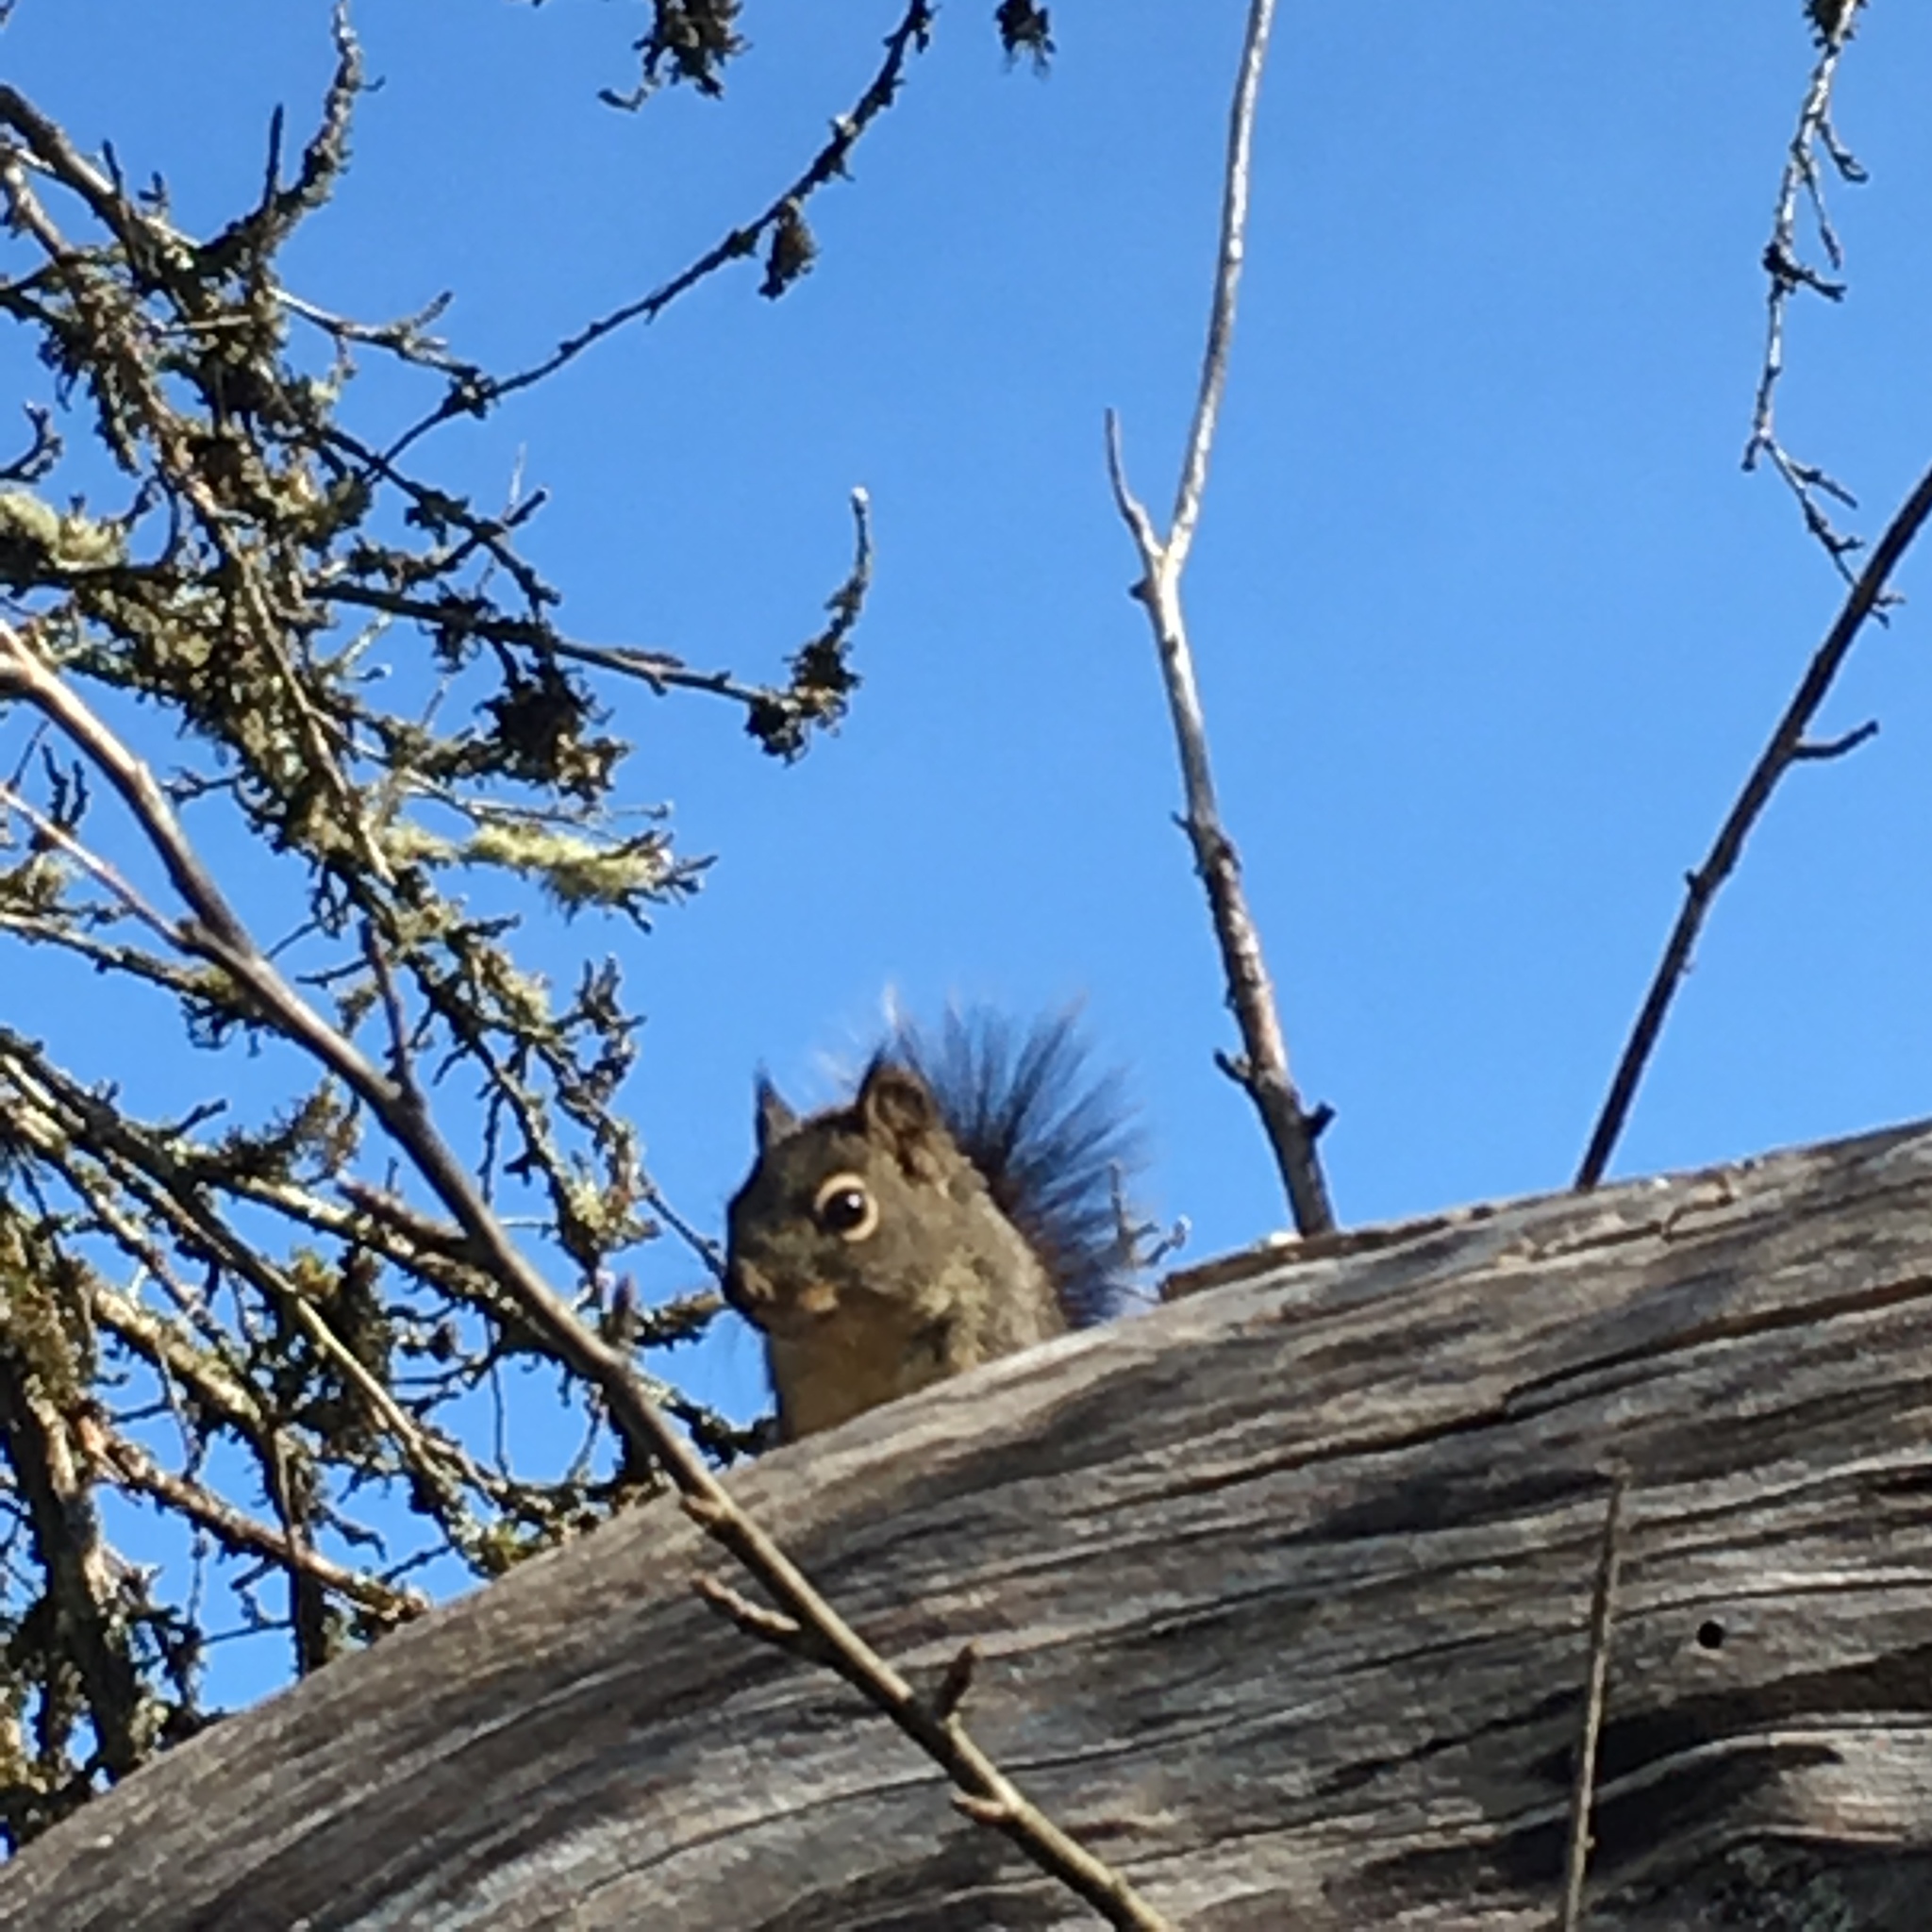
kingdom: Animalia
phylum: Chordata
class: Mammalia
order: Rodentia
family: Sciuridae
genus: Tamiasciurus
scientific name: Tamiasciurus douglasii
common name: Douglas's squirrel
